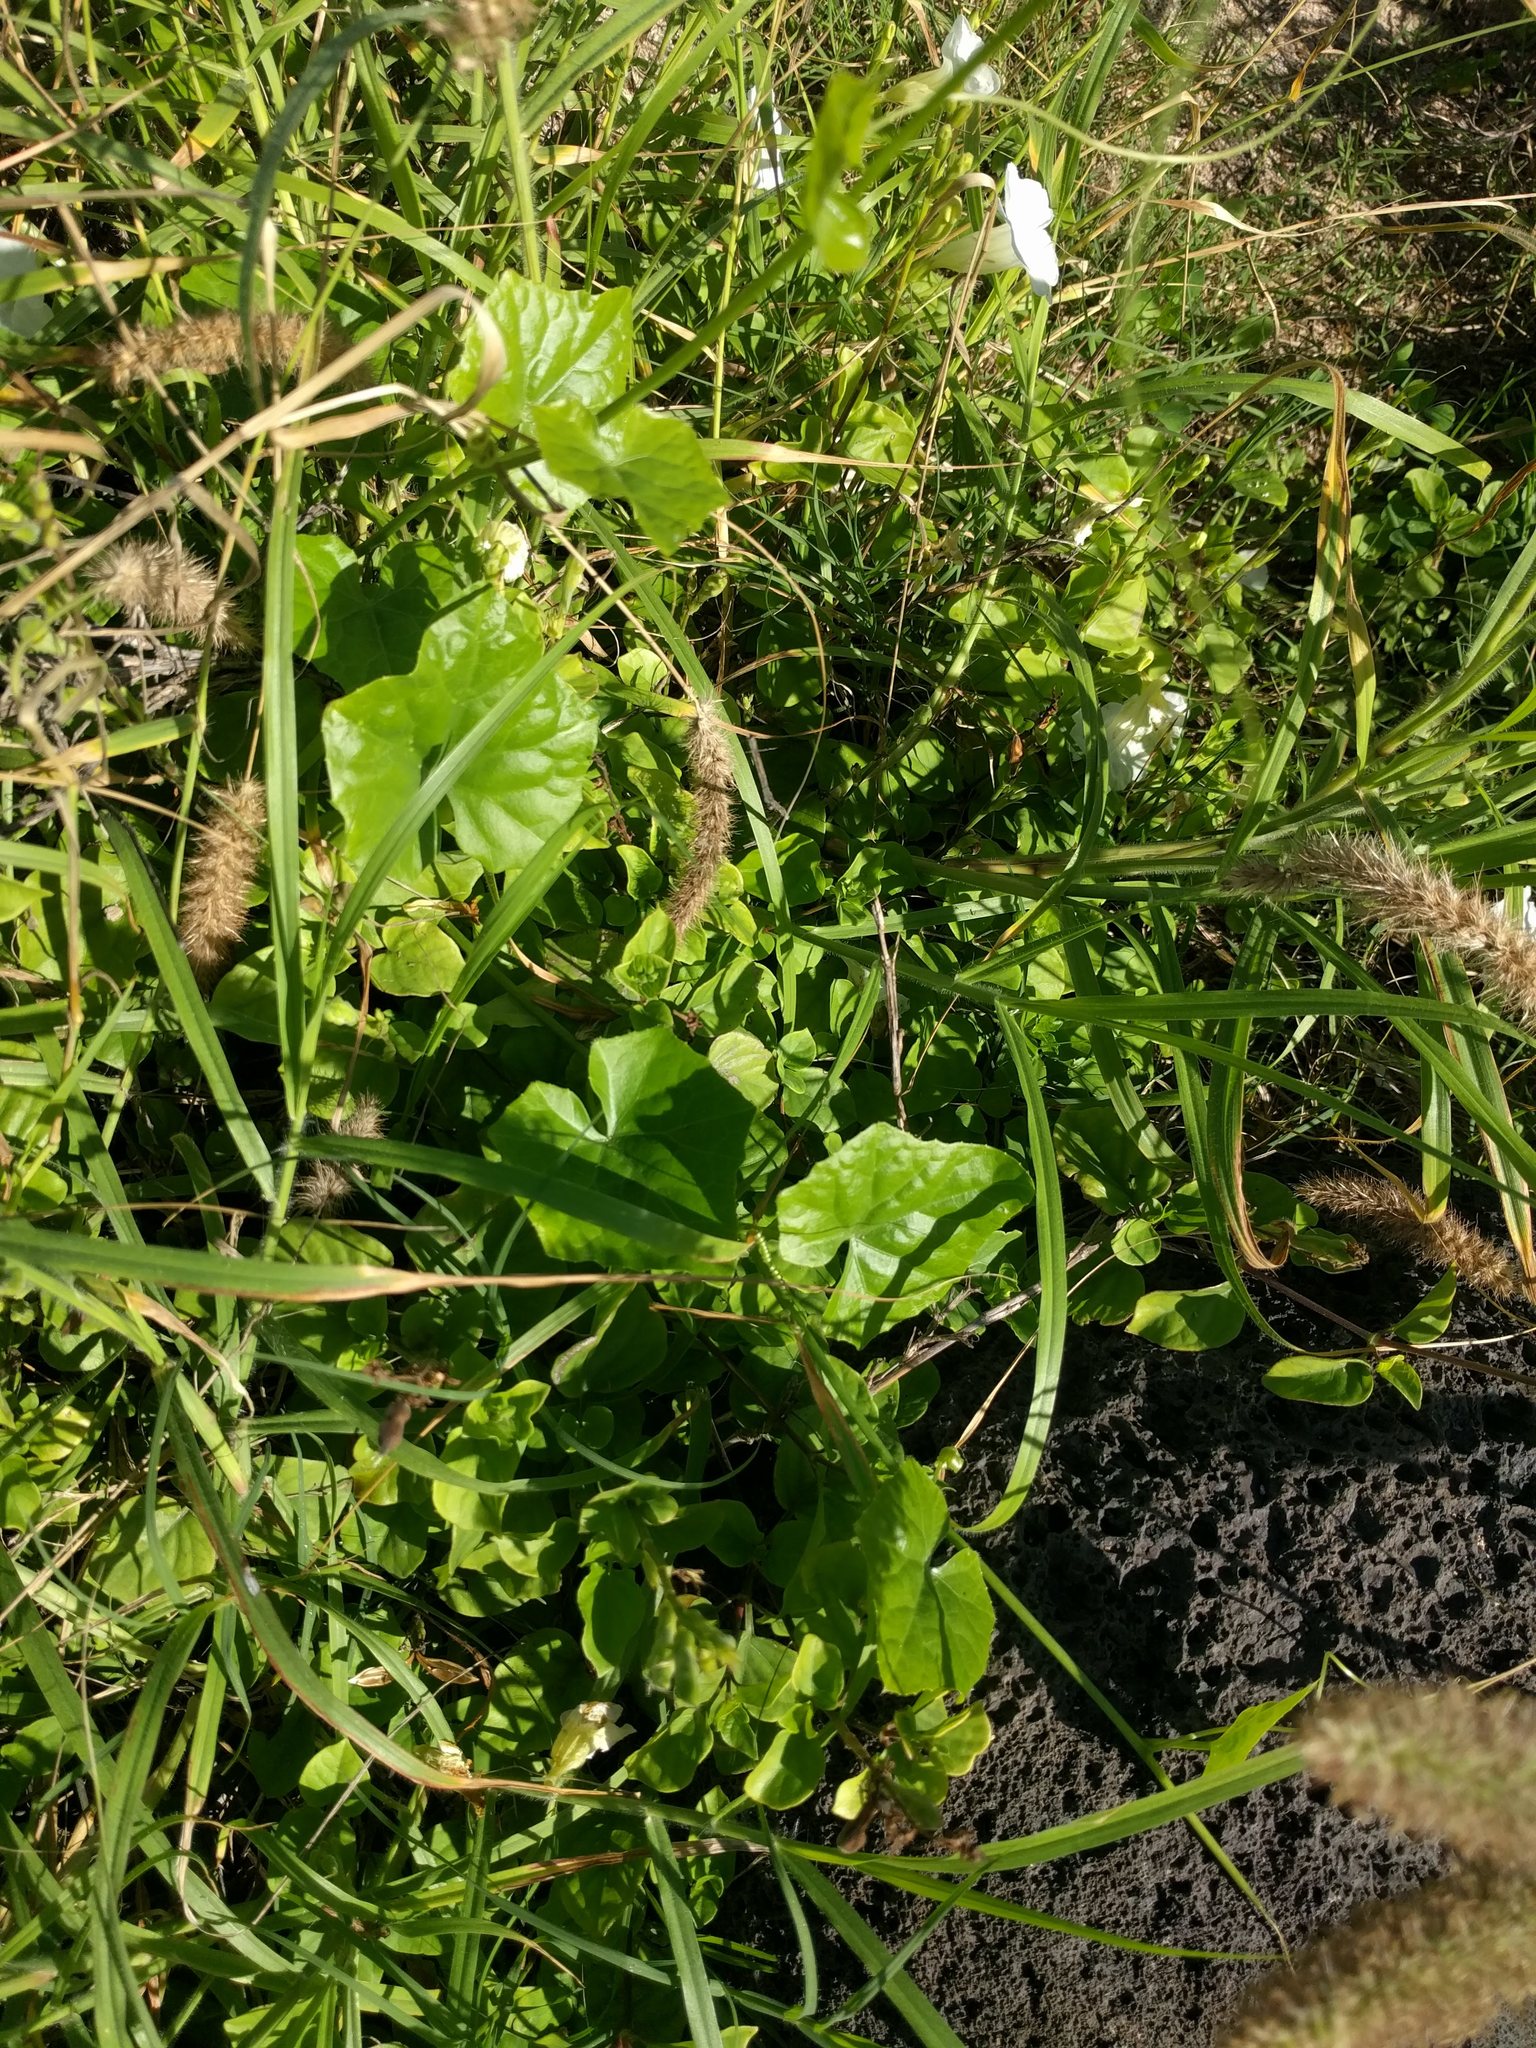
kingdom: Plantae
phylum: Tracheophyta
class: Magnoliopsida
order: Cucurbitales
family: Cucurbitaceae
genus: Coccinia
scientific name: Coccinia grandis
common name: Ivy gourd
